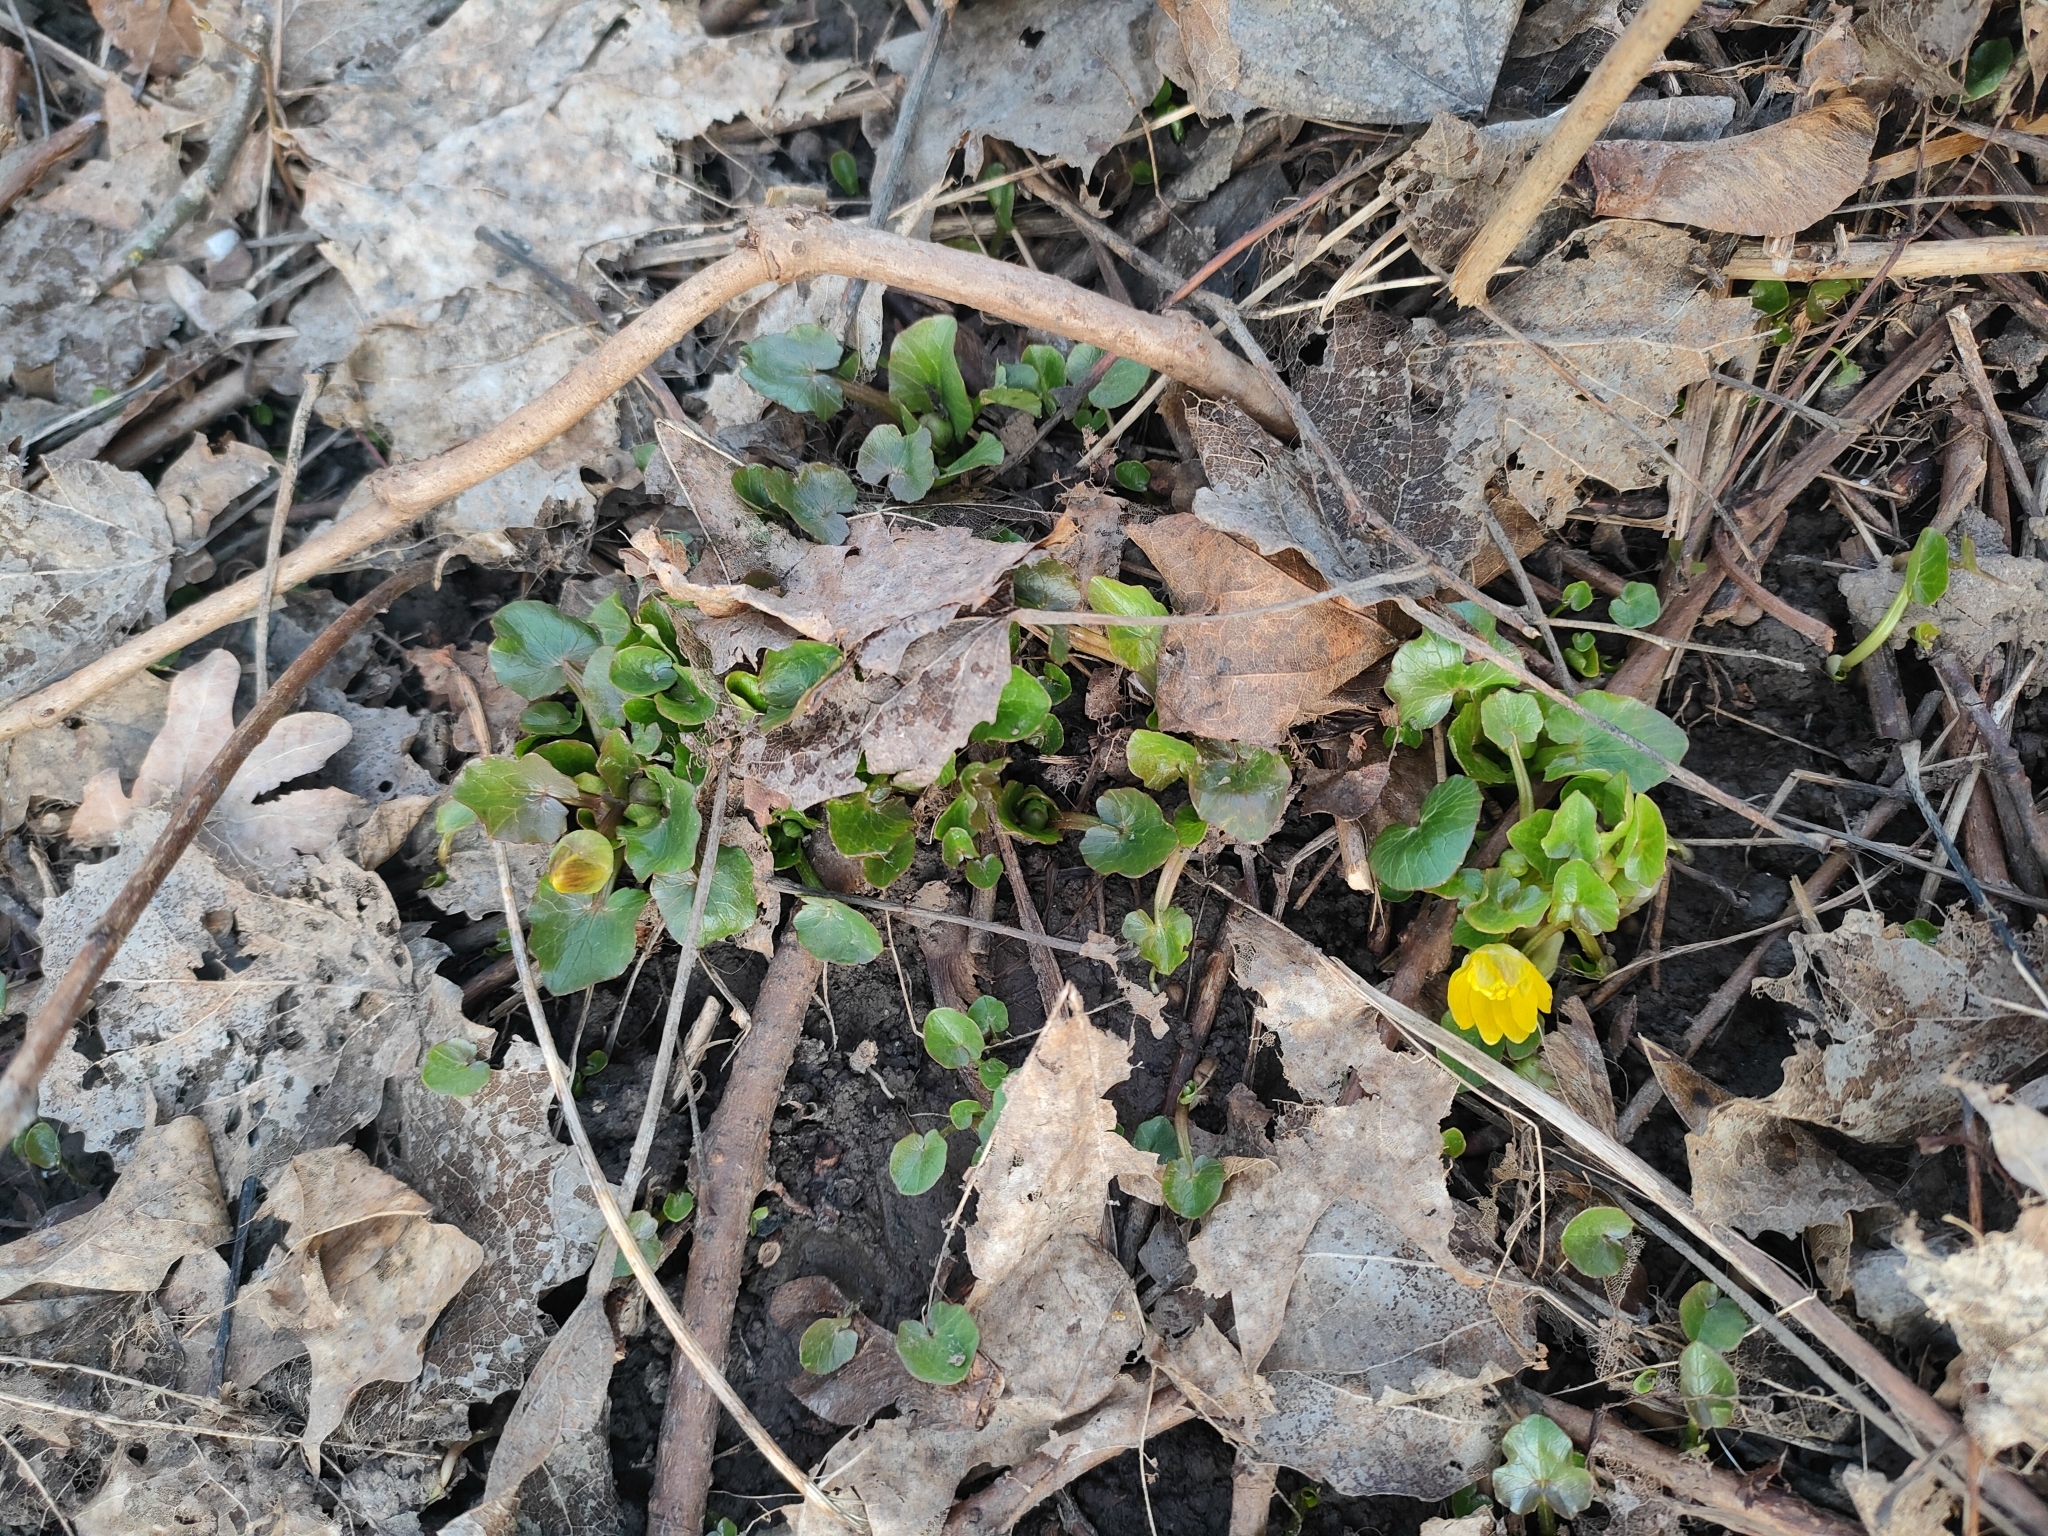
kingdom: Plantae
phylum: Tracheophyta
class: Magnoliopsida
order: Ranunculales
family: Ranunculaceae
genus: Ficaria
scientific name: Ficaria verna
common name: Lesser celandine
